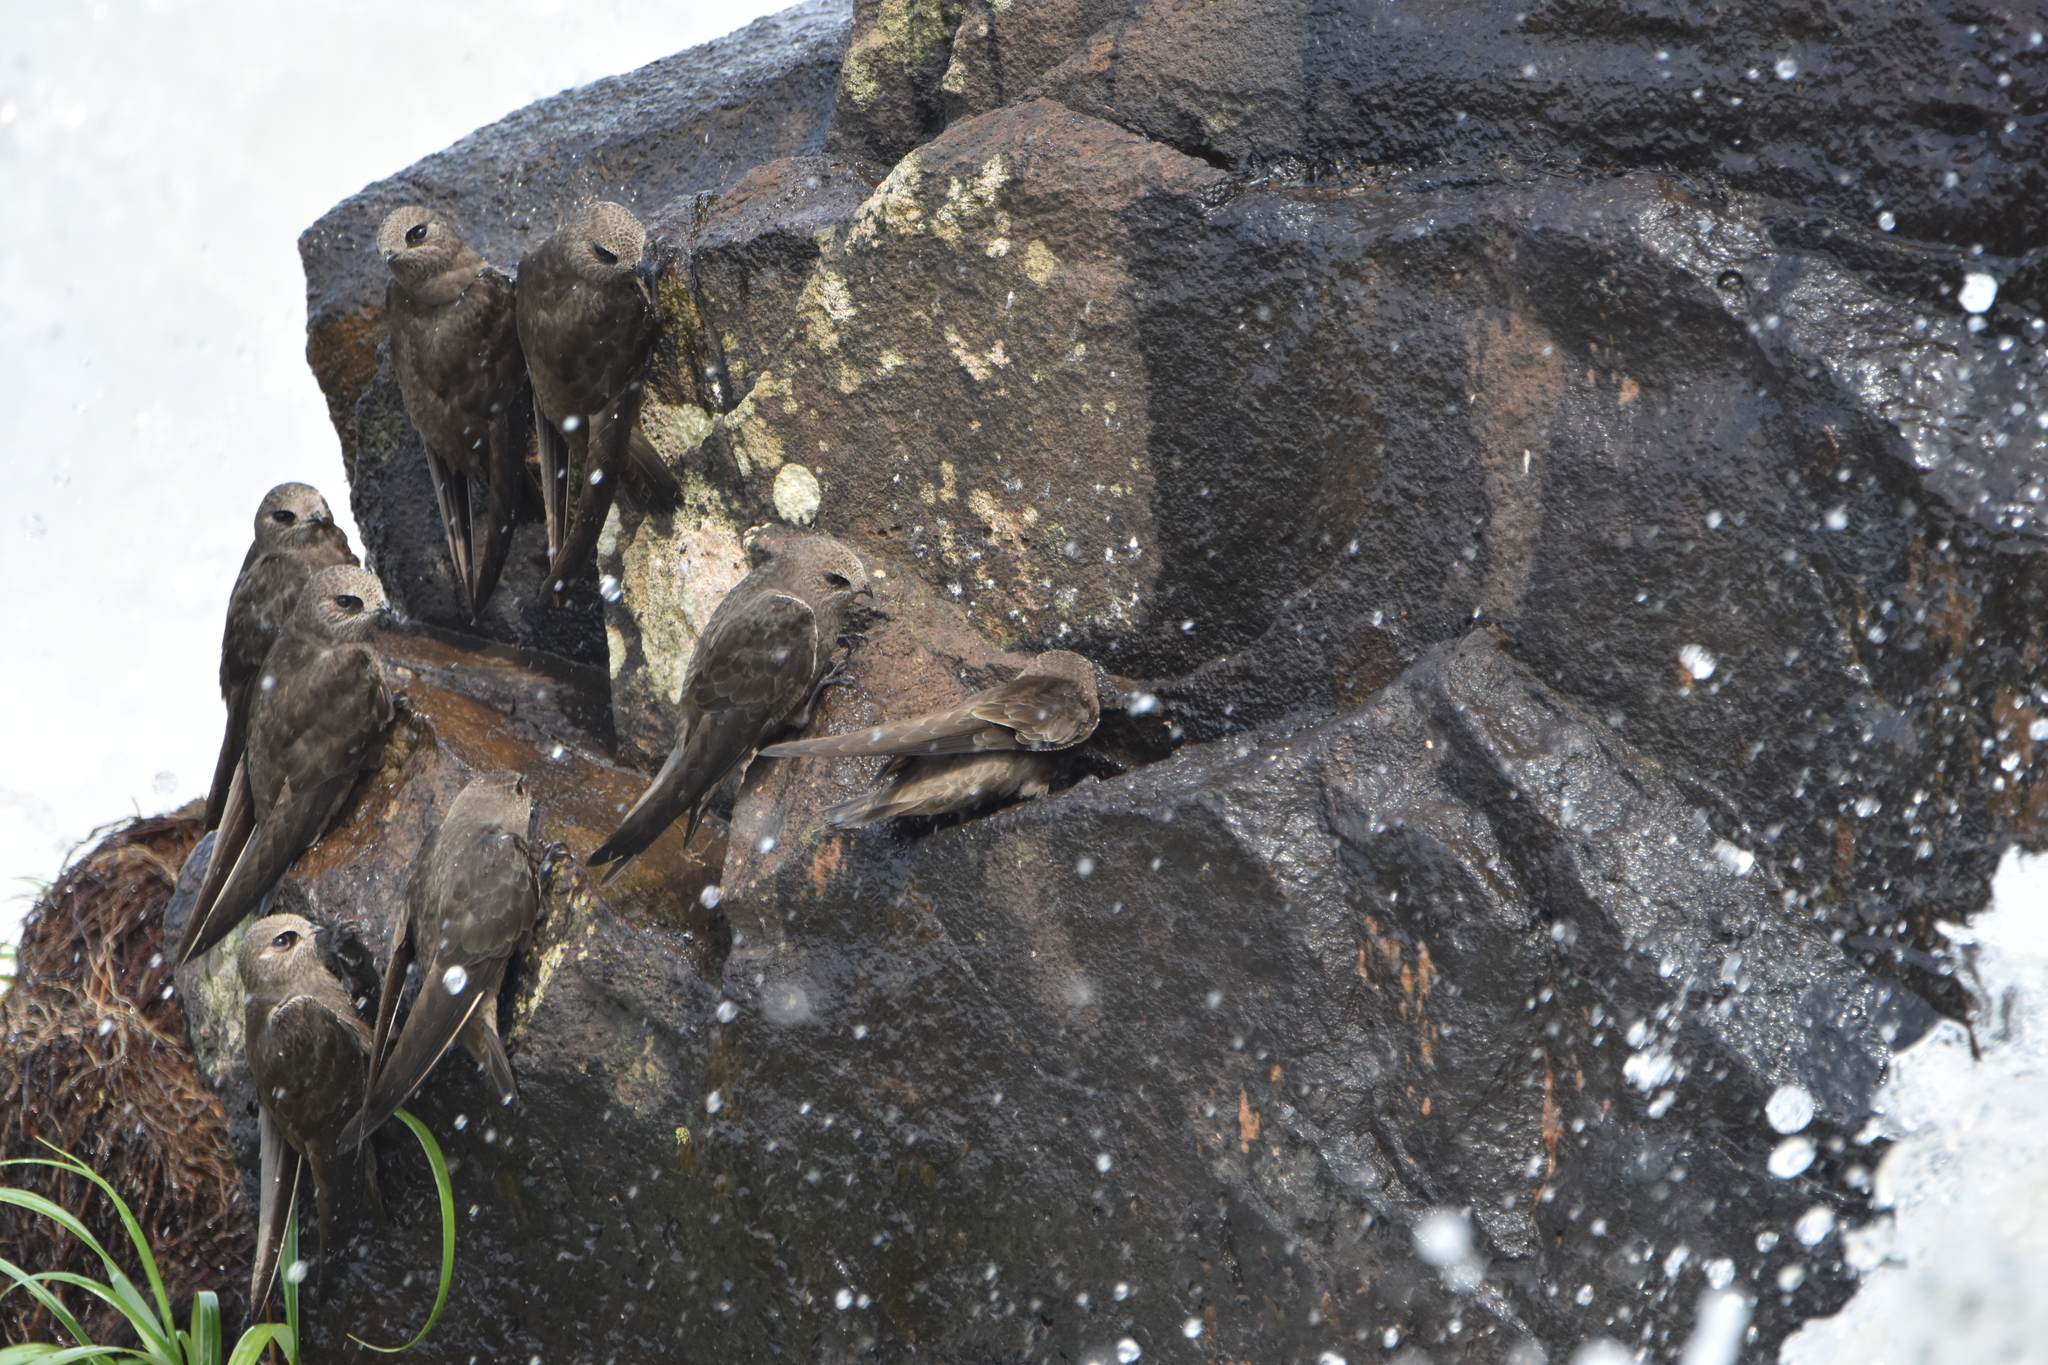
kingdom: Animalia
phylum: Chordata
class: Aves
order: Apodiformes
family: Apodidae
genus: Cypseloides
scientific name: Cypseloides senex
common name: Great dusky swift
